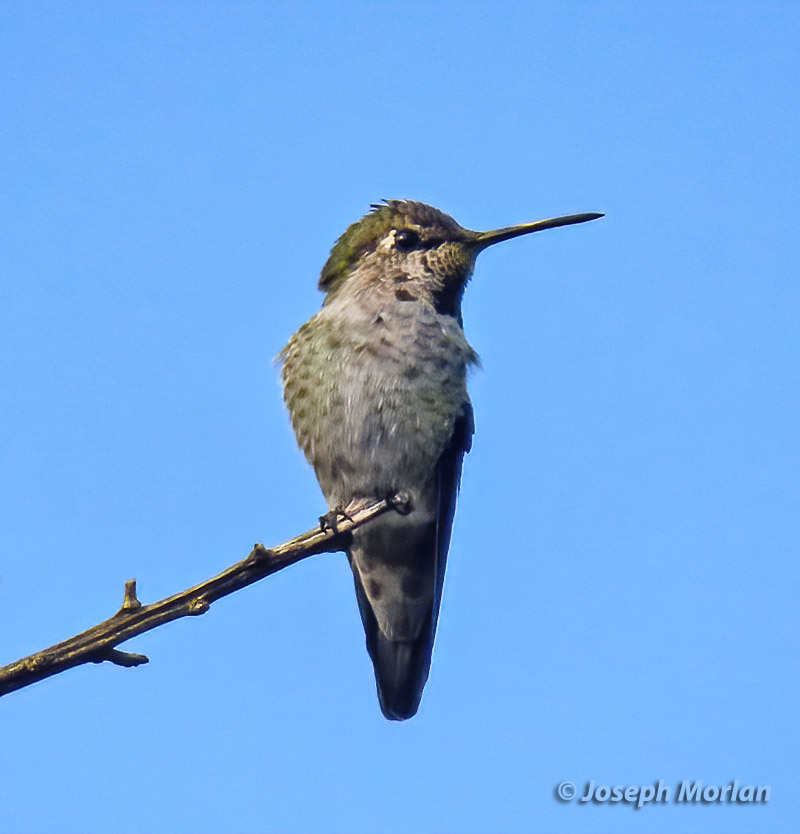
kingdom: Animalia
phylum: Chordata
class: Aves
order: Apodiformes
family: Trochilidae
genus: Calypte
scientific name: Calypte anna
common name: Anna's hummingbird
